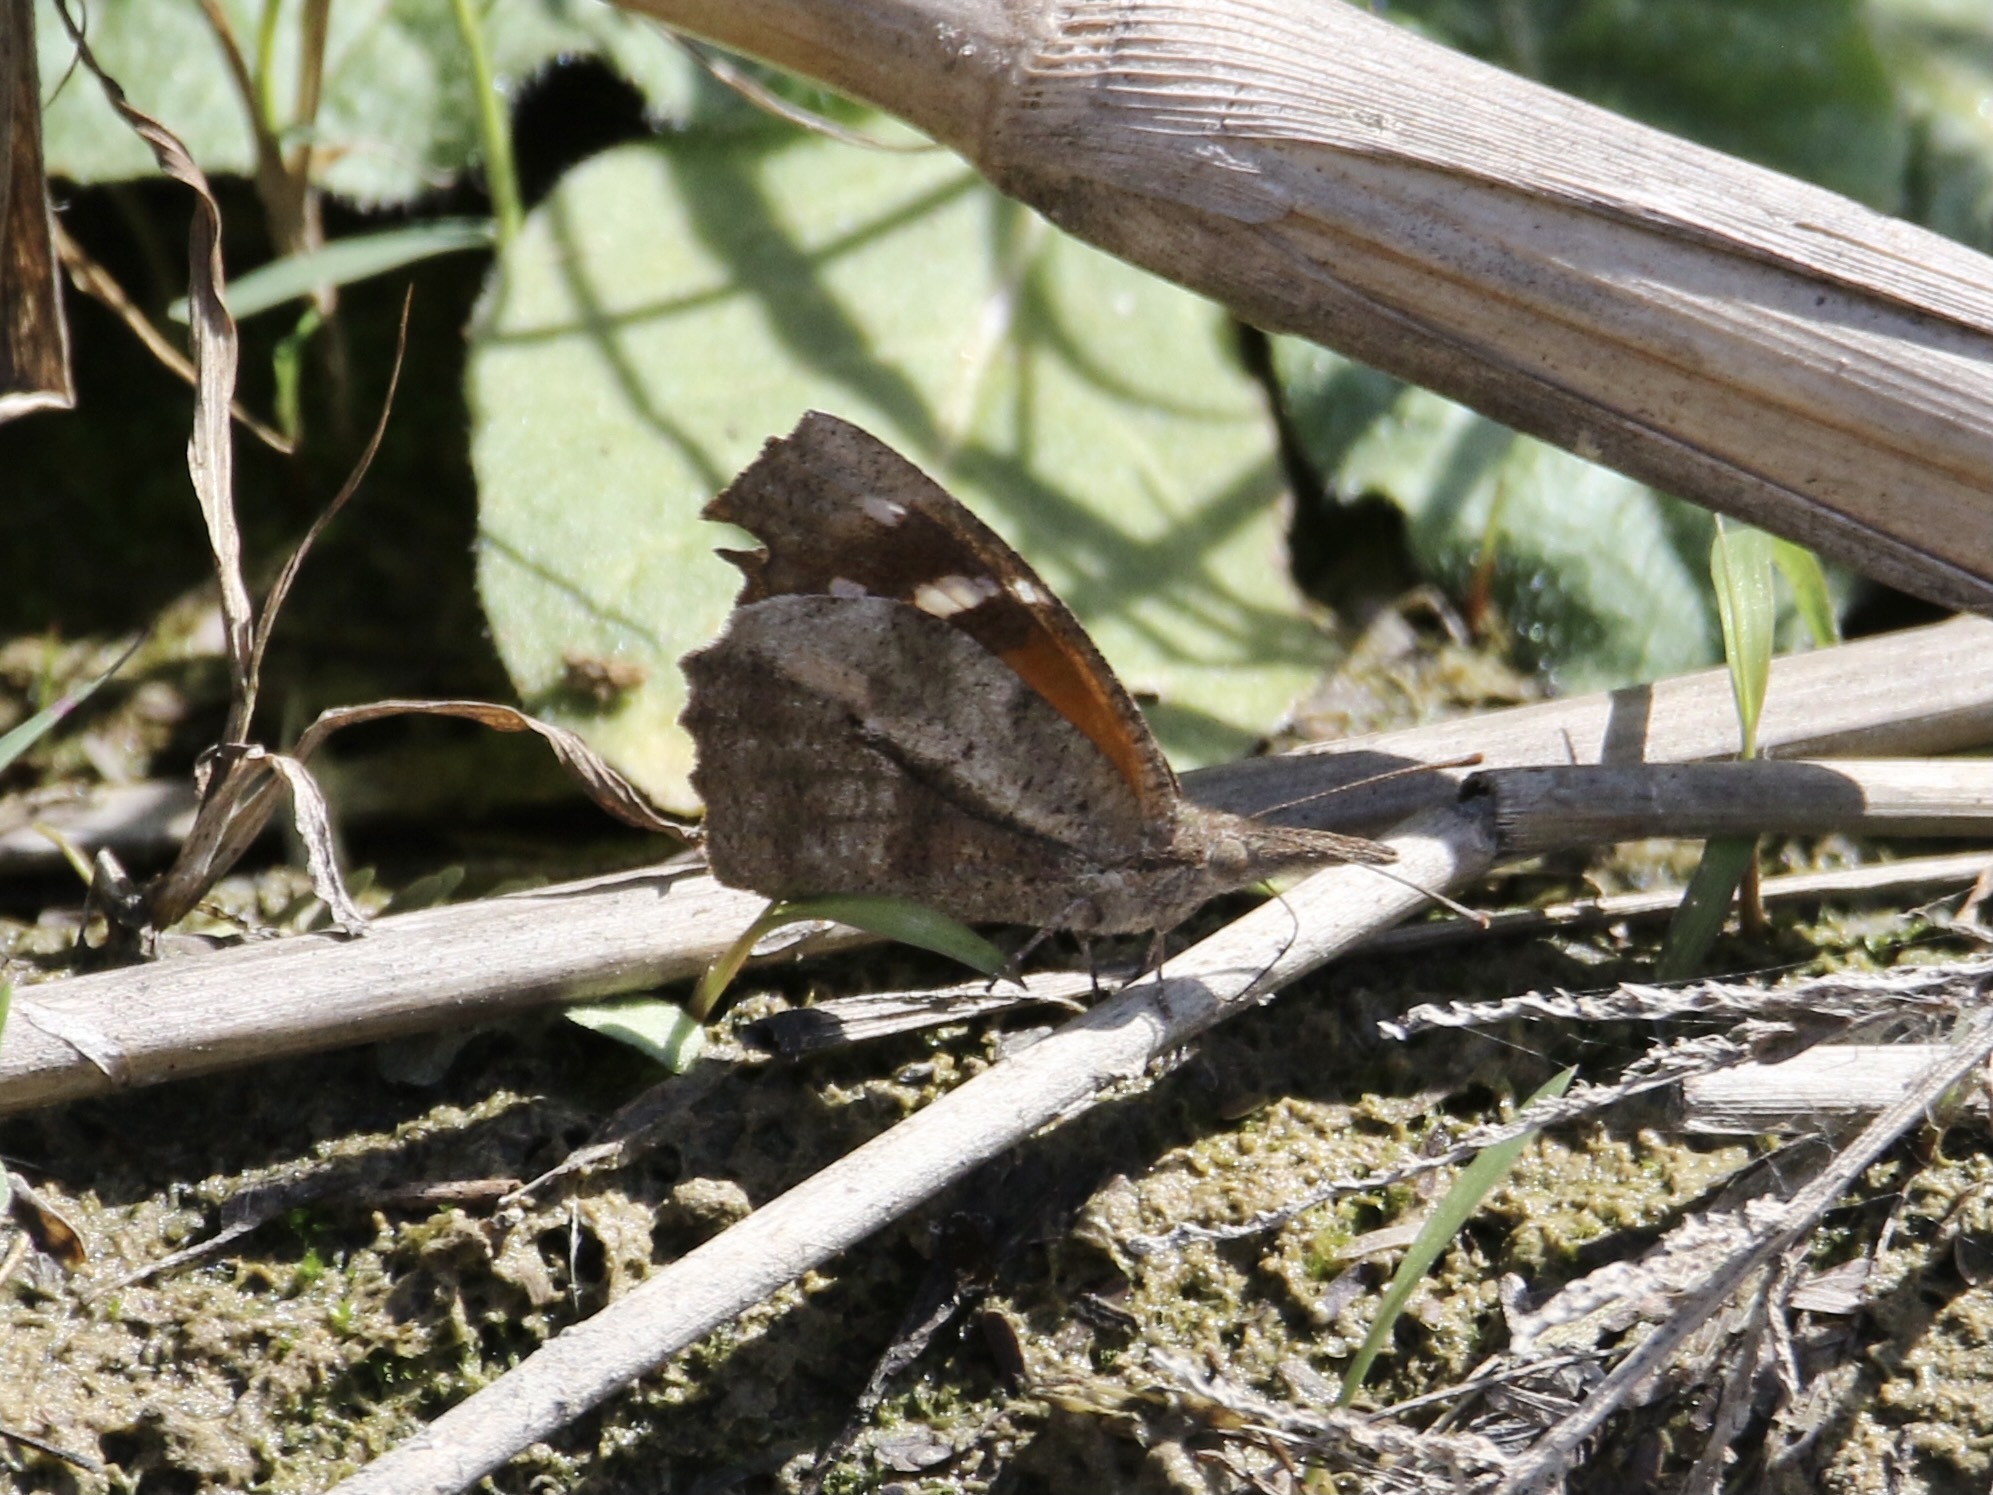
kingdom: Animalia
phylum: Arthropoda
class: Insecta
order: Lepidoptera
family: Nymphalidae
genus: Libytheana
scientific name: Libytheana carinenta
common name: American snout
